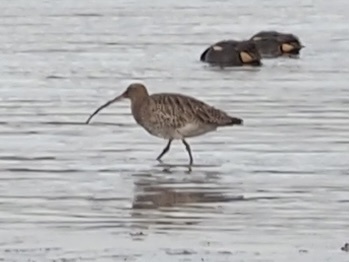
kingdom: Animalia
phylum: Chordata
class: Aves
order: Charadriiformes
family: Scolopacidae
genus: Numenius
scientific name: Numenius arquata
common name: Eurasian curlew
